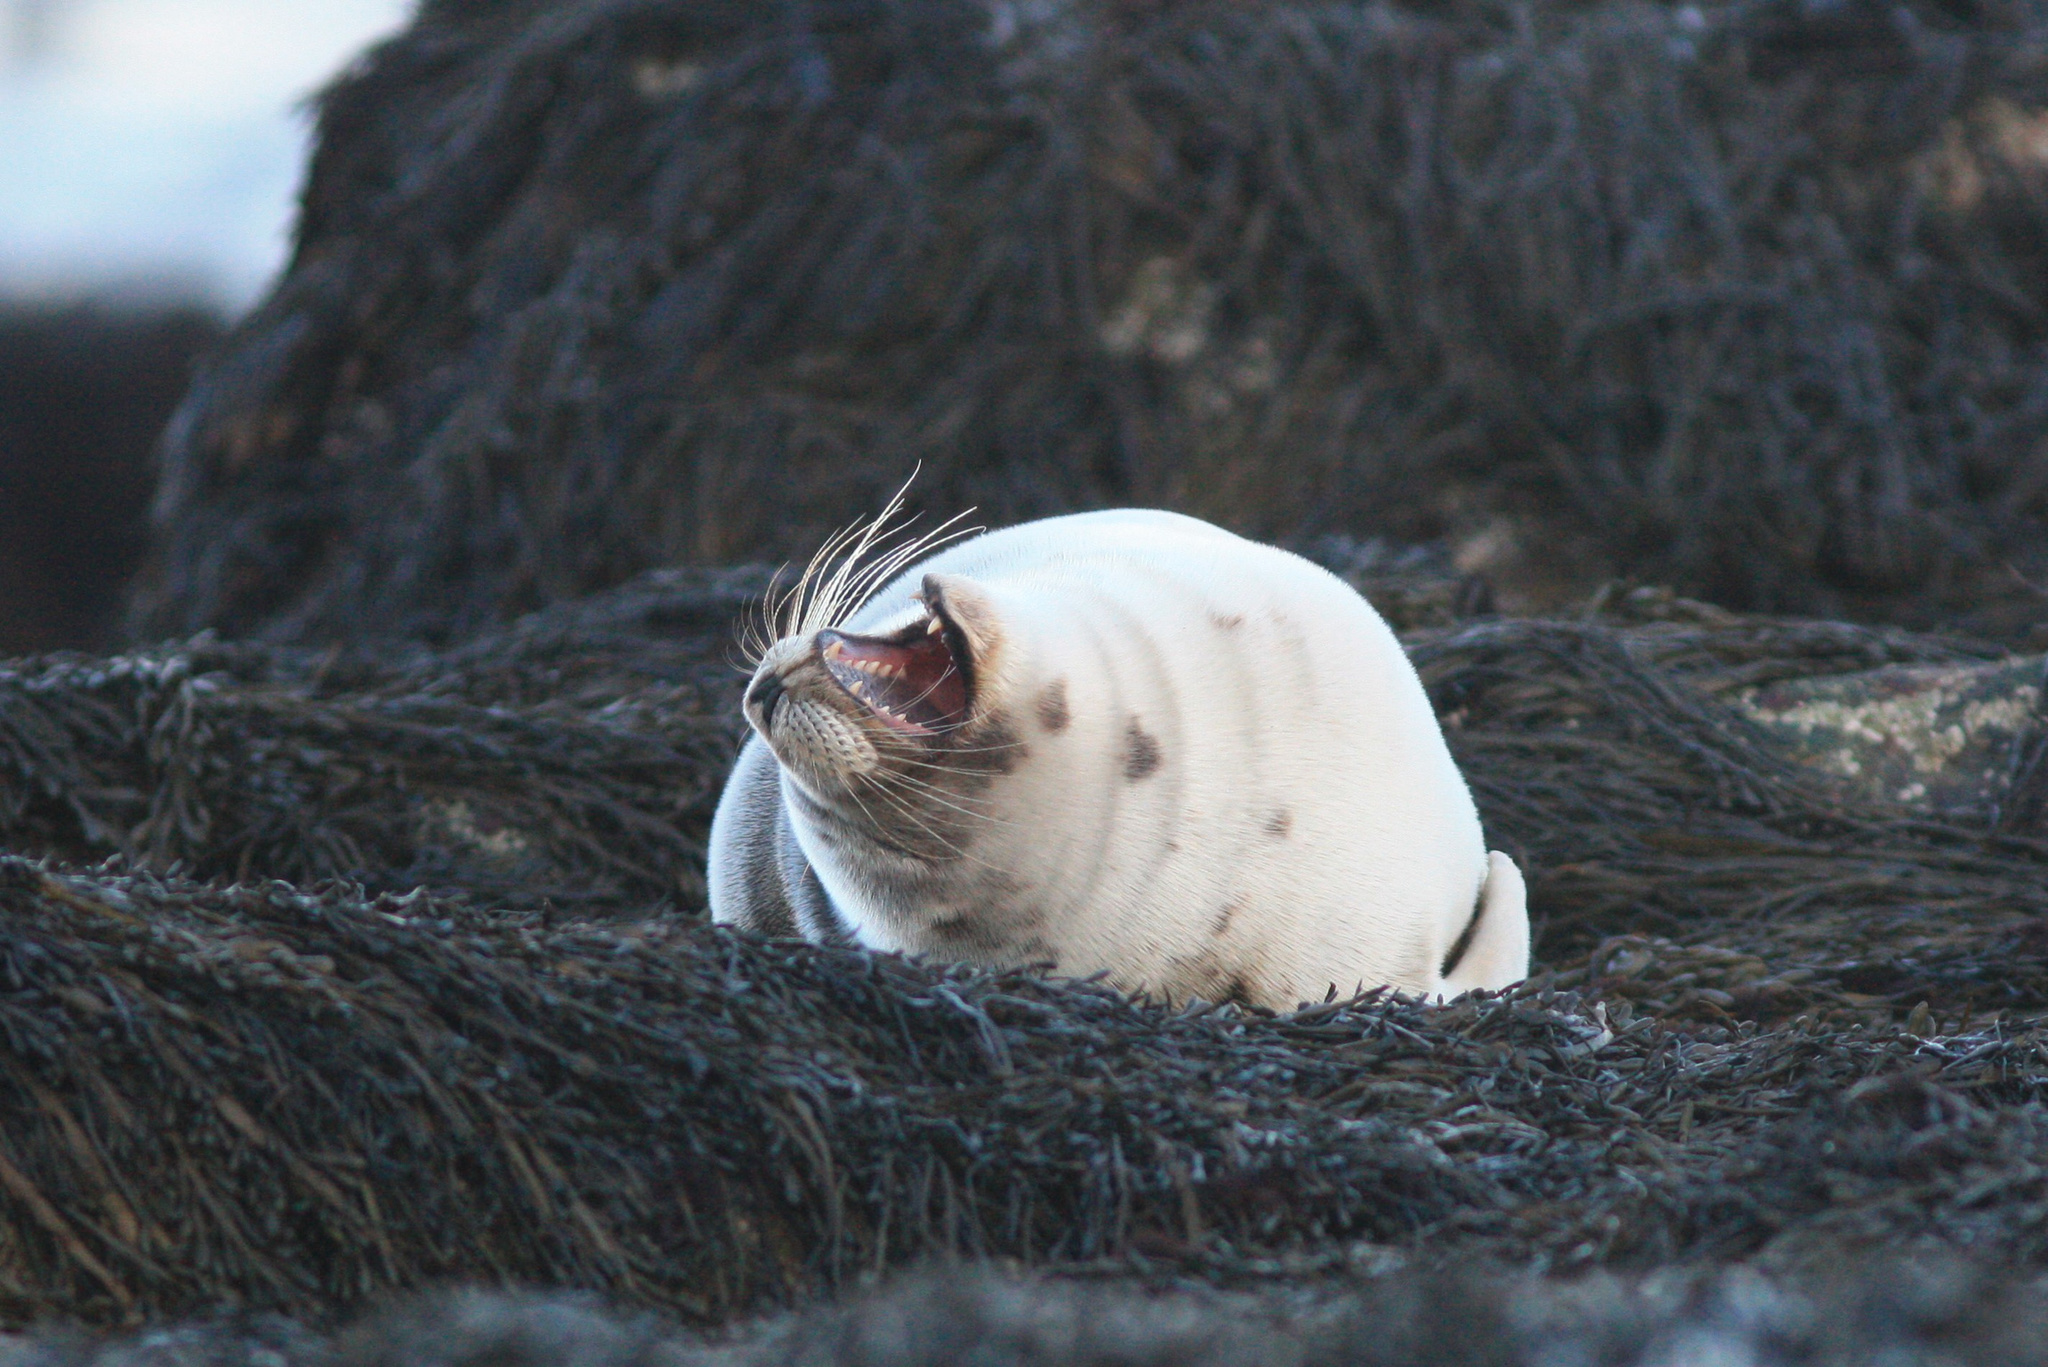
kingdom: Animalia
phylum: Chordata
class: Mammalia
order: Carnivora
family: Phocidae
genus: Pagophilus
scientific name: Pagophilus groenlandicus
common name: Harp seal
